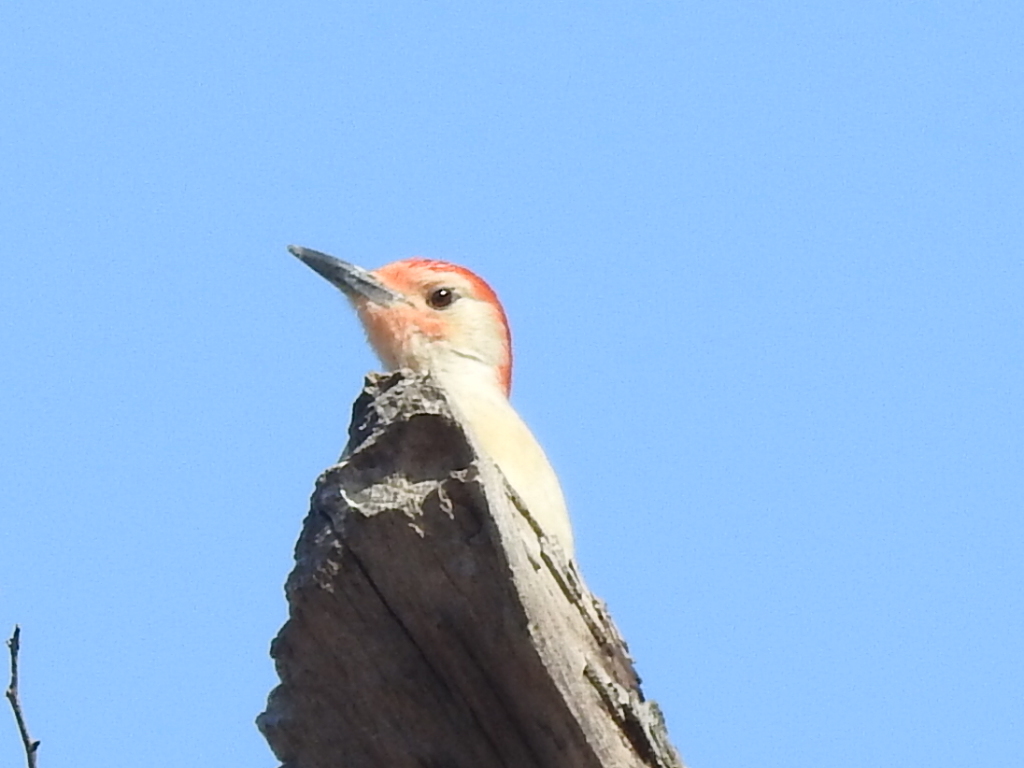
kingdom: Animalia
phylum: Chordata
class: Aves
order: Piciformes
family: Picidae
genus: Melanerpes
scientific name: Melanerpes carolinus
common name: Red-bellied woodpecker
